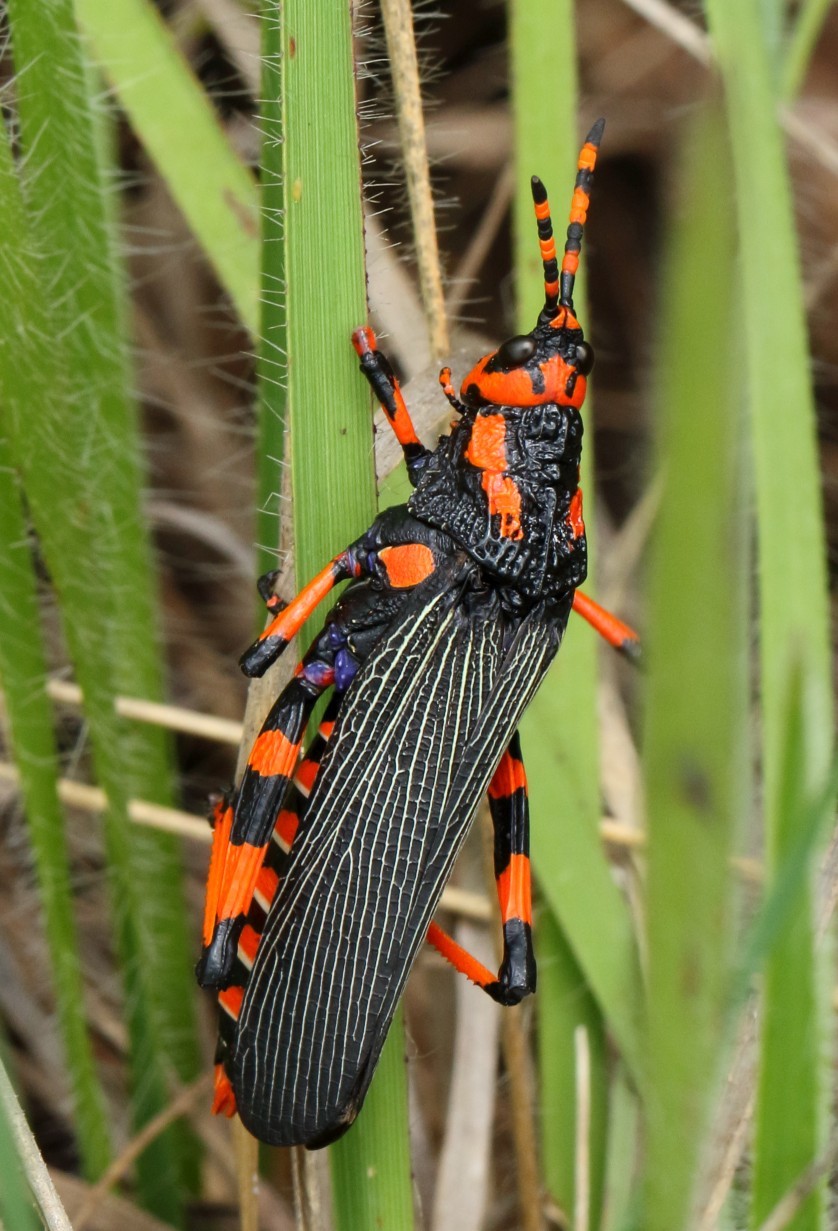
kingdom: Animalia
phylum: Arthropoda
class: Insecta
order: Orthoptera
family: Pyrgomorphidae
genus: Maura
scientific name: Maura rubroornata
